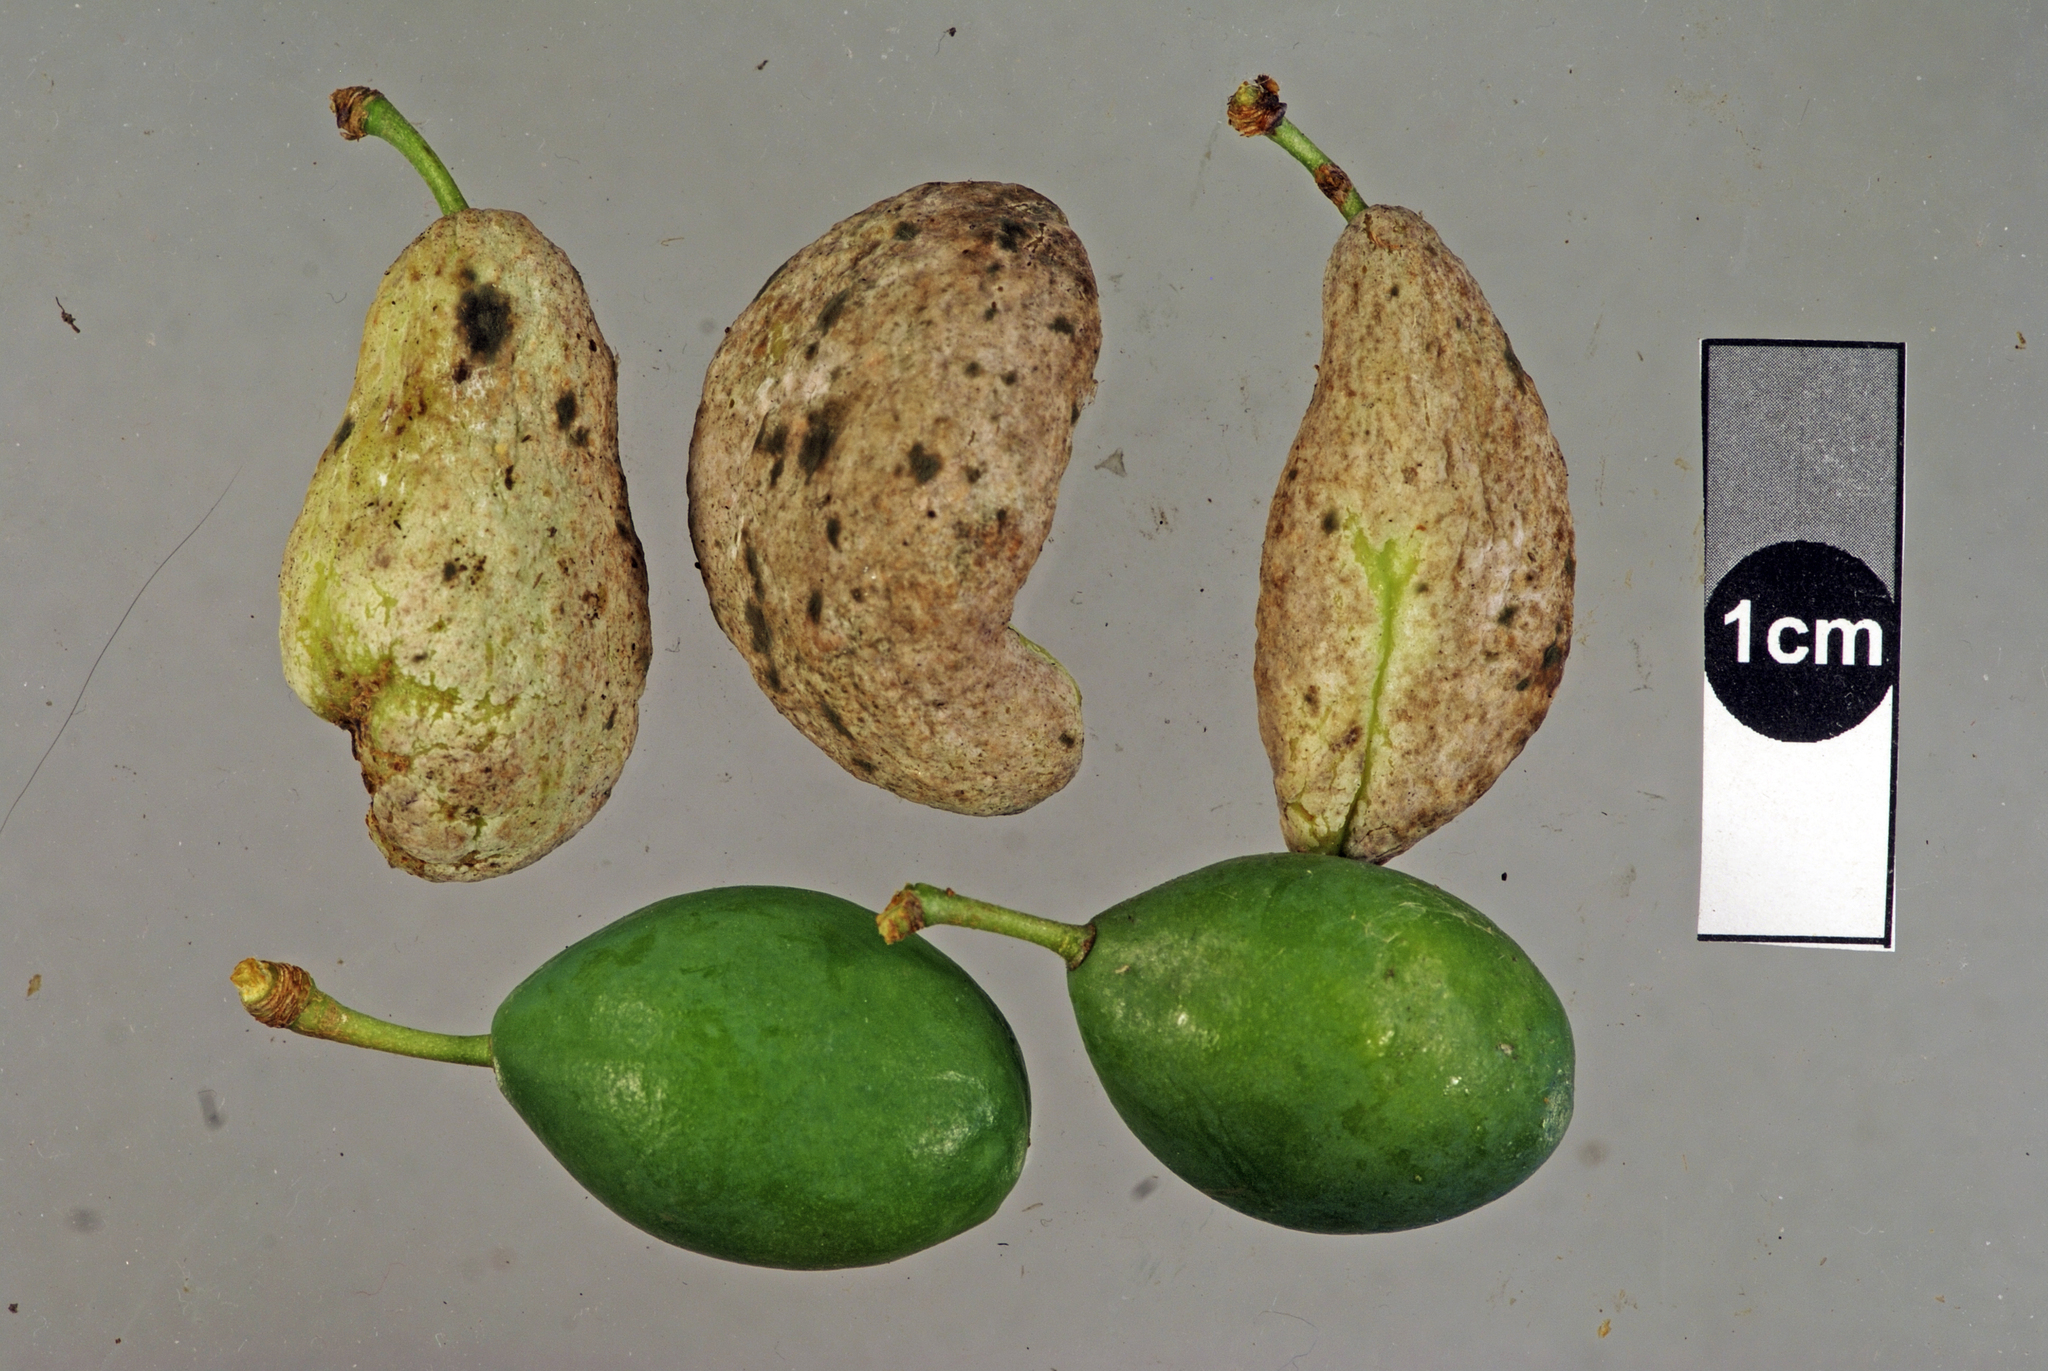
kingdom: Fungi
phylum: Ascomycota
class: Taphrinomycetes
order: Taphrinales
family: Taphrinaceae
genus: Taphrina
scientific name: Taphrina pruni
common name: Pocket plum
